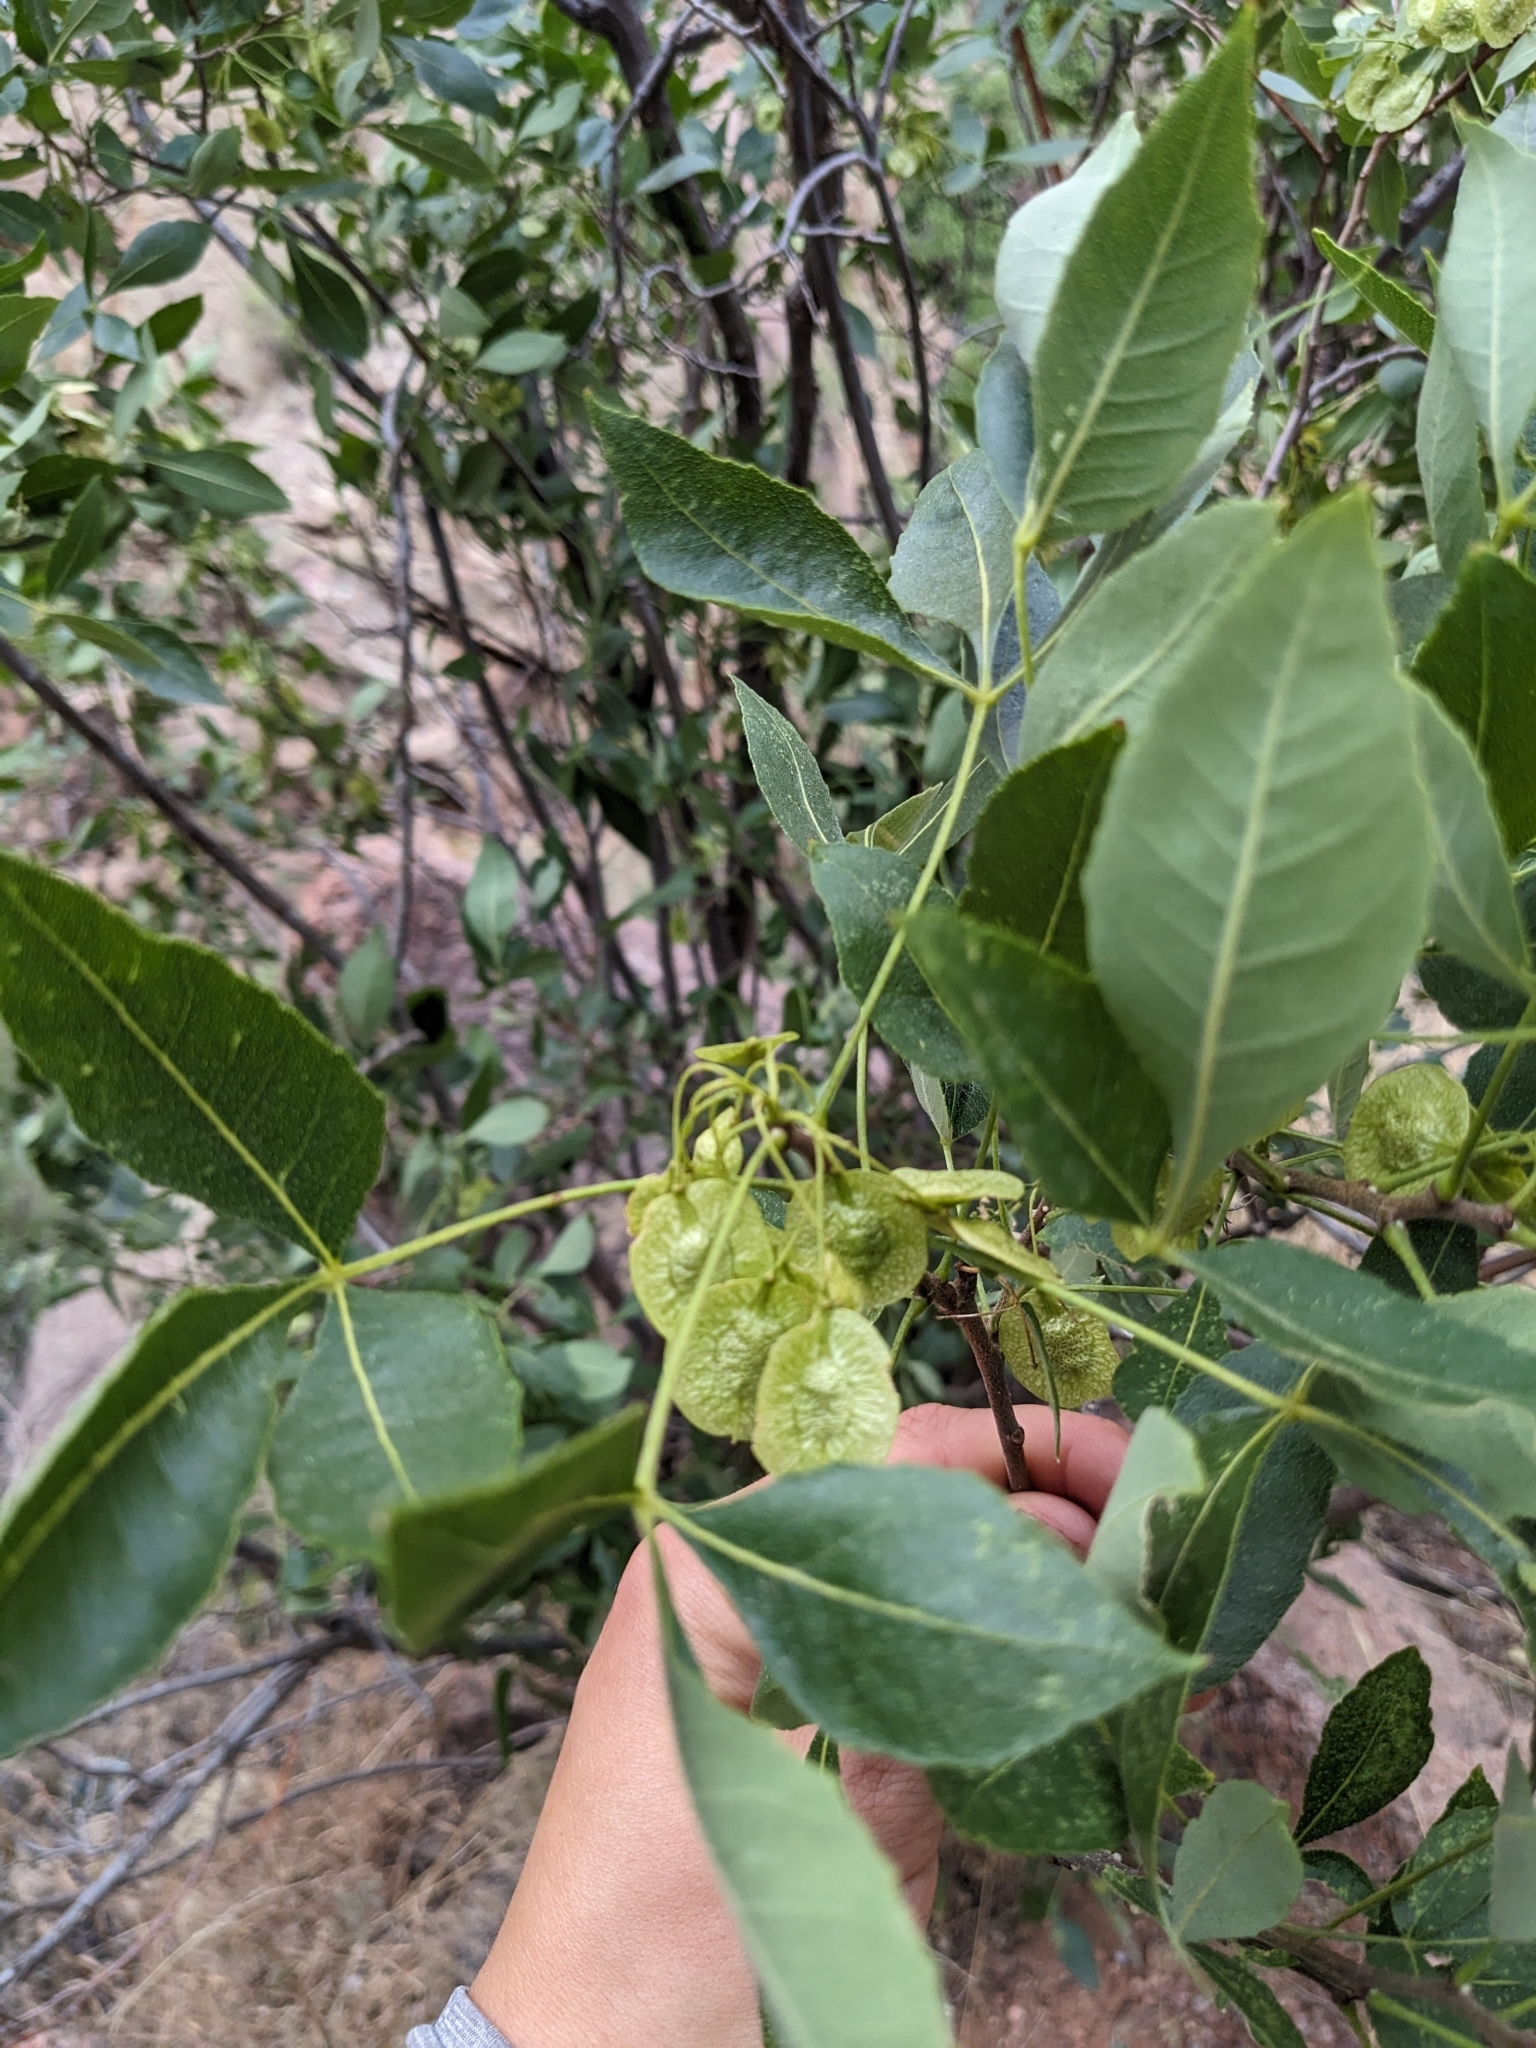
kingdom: Plantae
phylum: Tracheophyta
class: Magnoliopsida
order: Sapindales
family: Rutaceae
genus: Ptelea
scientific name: Ptelea trifoliata
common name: Common hop-tree
